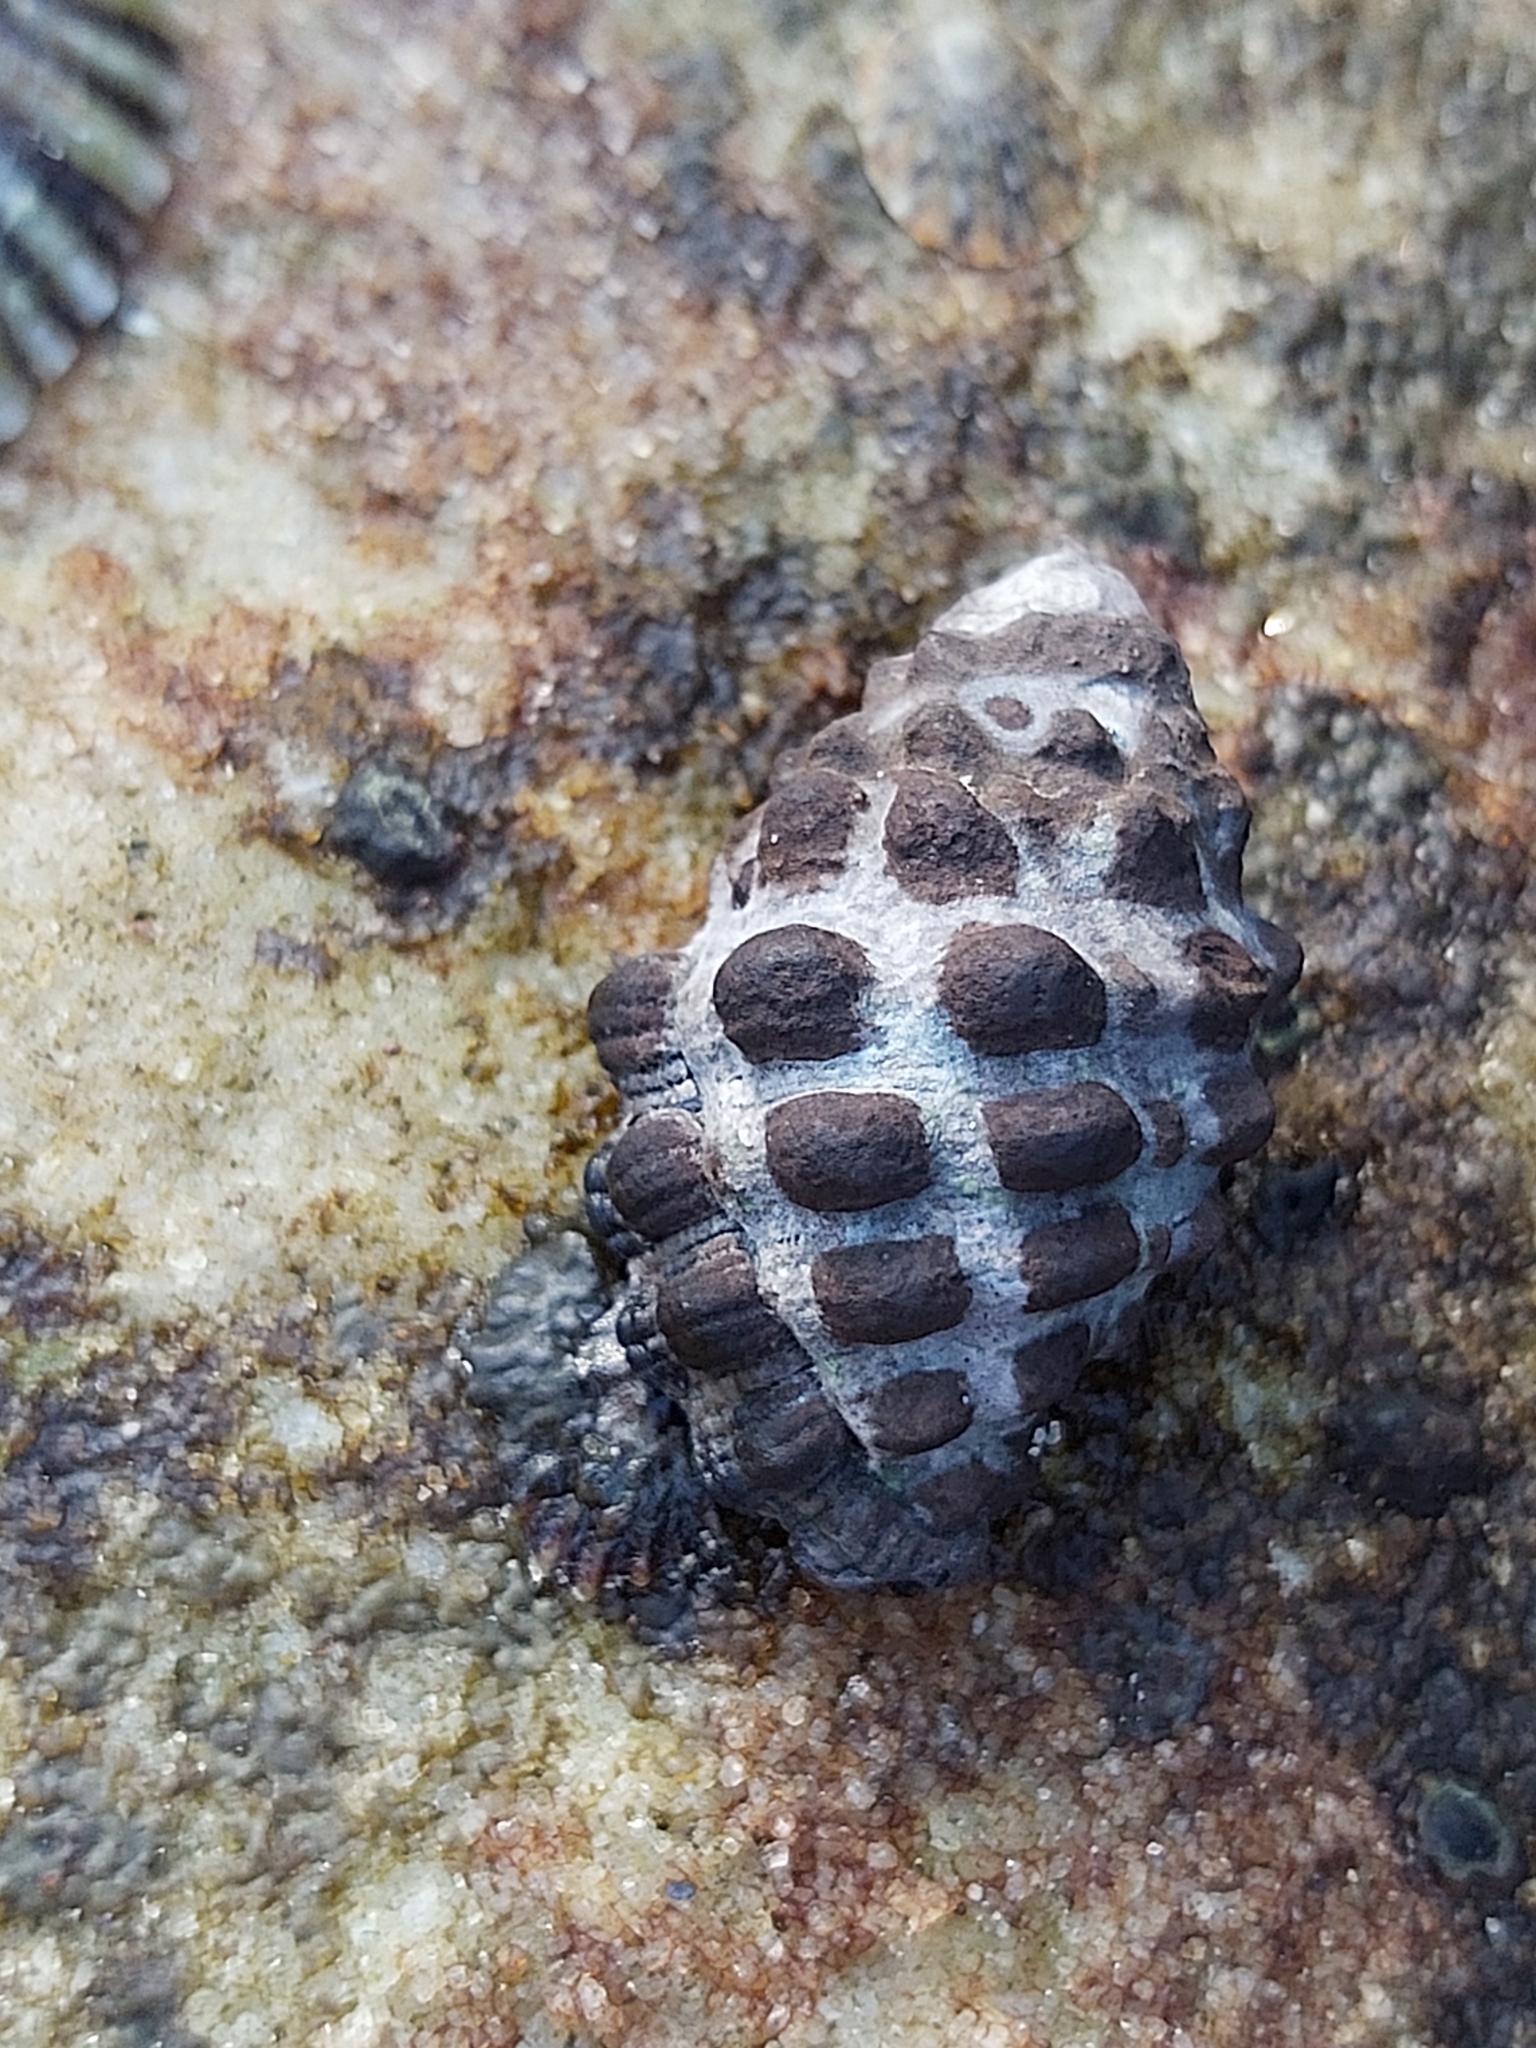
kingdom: Animalia
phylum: Mollusca
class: Gastropoda
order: Neogastropoda
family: Muricidae
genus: Tenguella
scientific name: Tenguella marginalba
